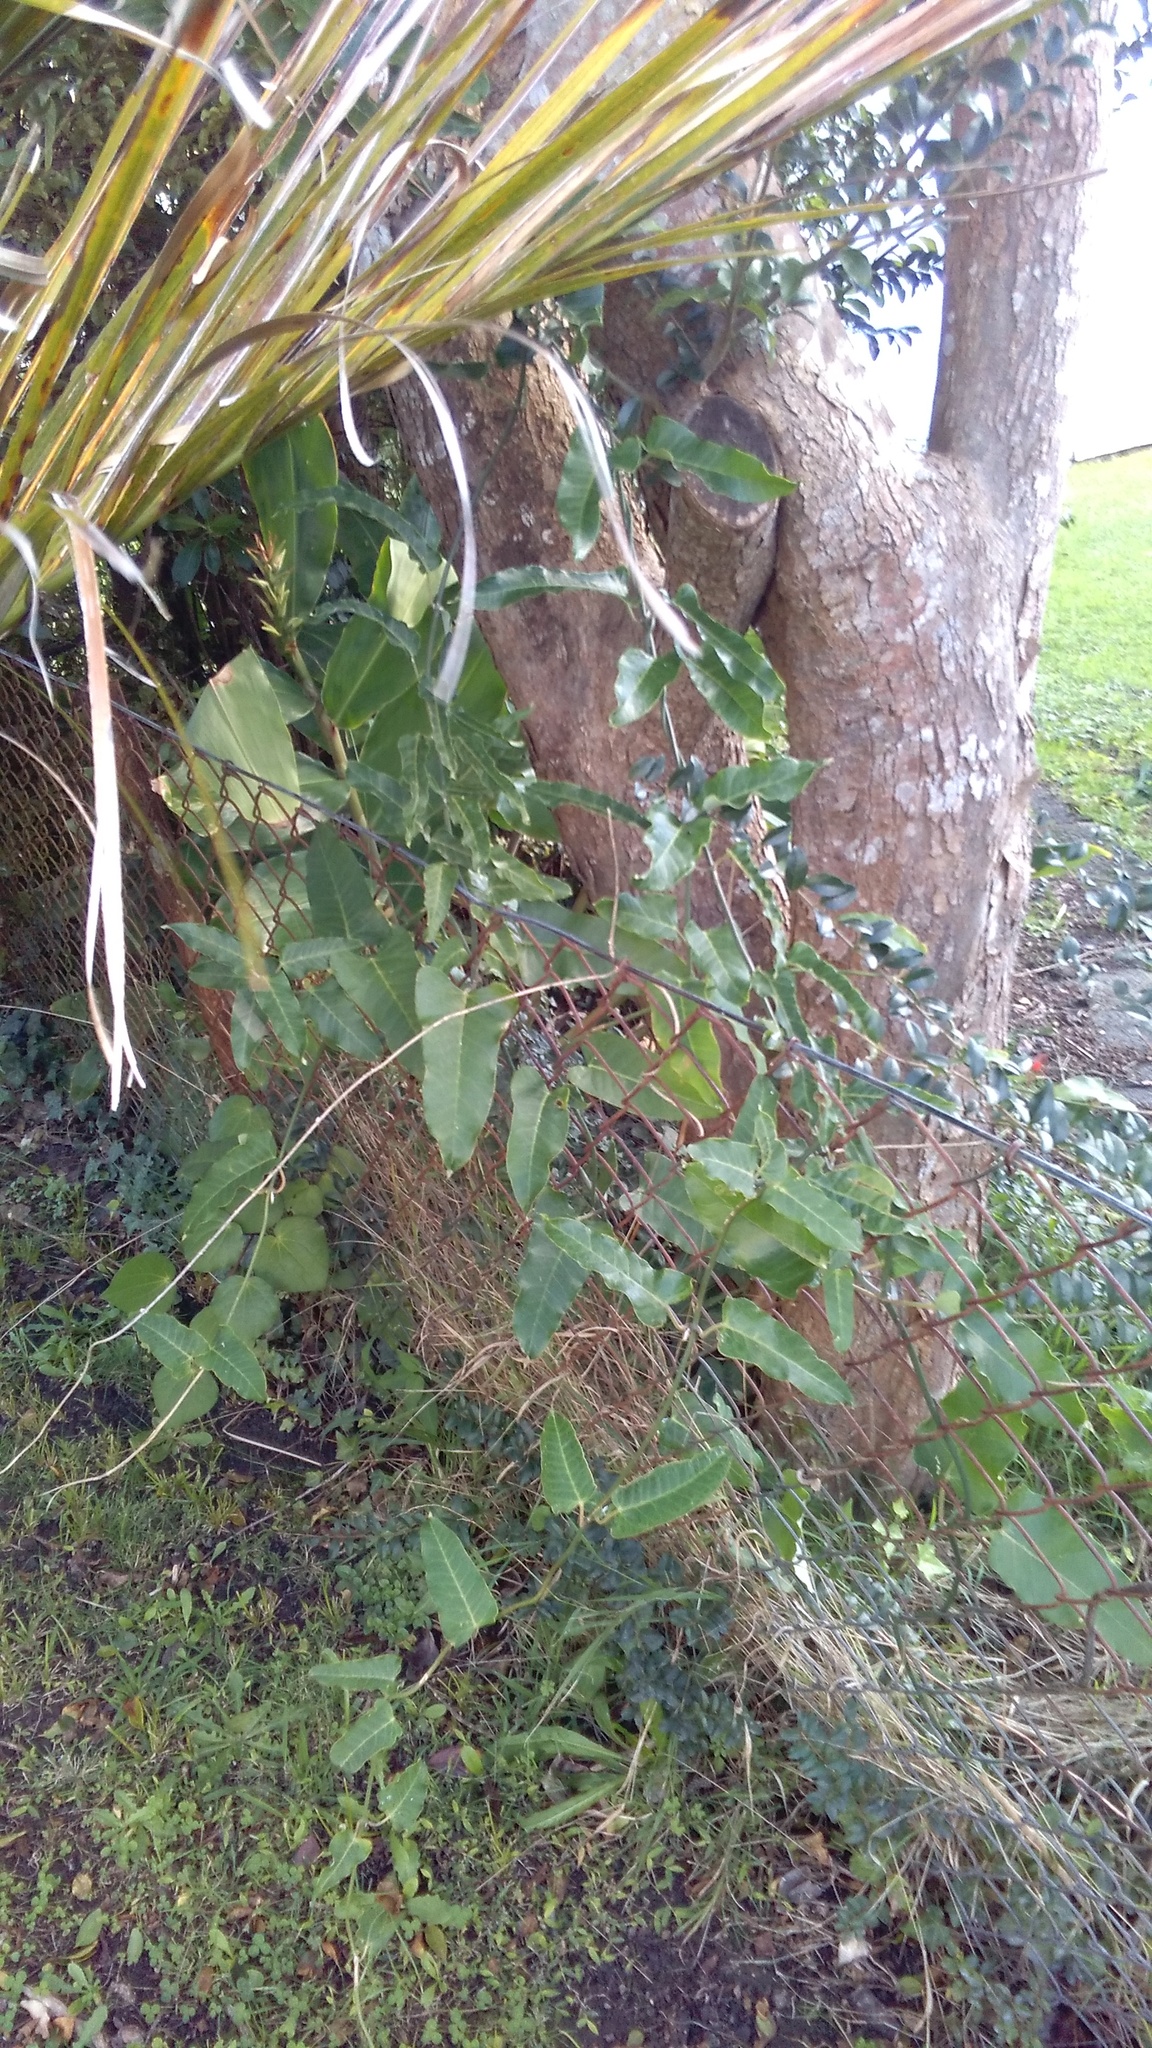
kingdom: Plantae
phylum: Tracheophyta
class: Magnoliopsida
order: Gentianales
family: Apocynaceae
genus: Araujia
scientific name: Araujia sericifera
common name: White bladderflower
